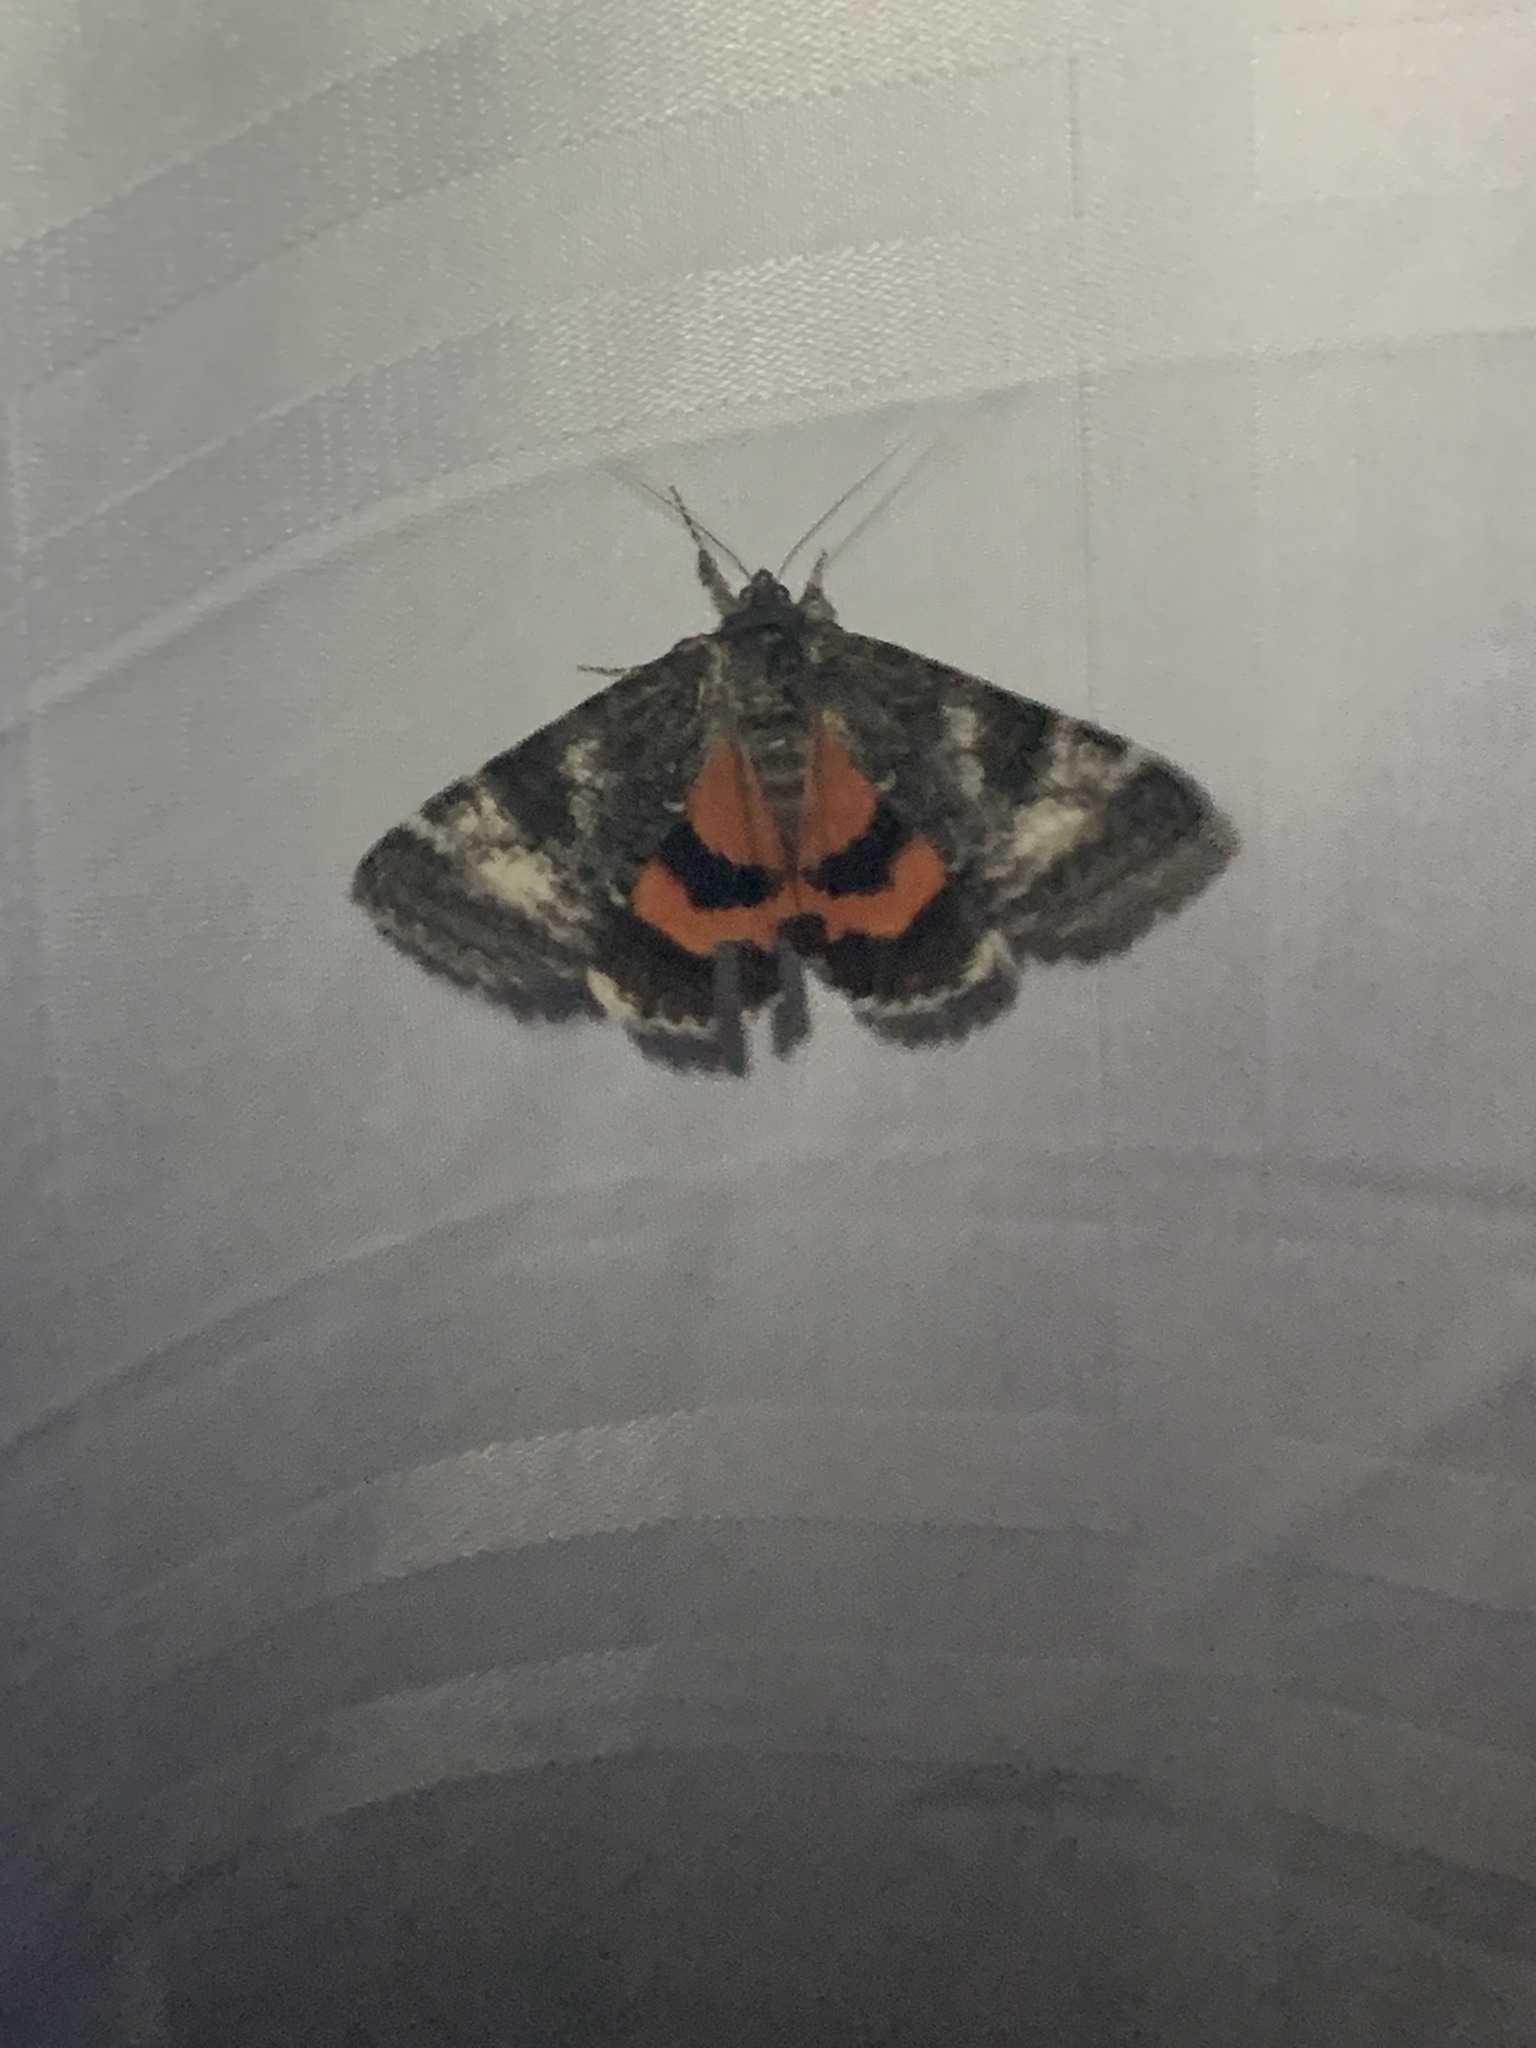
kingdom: Animalia
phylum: Arthropoda
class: Insecta
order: Lepidoptera
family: Erebidae
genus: Catocala
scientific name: Catocala briseis
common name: Briseis underwing
